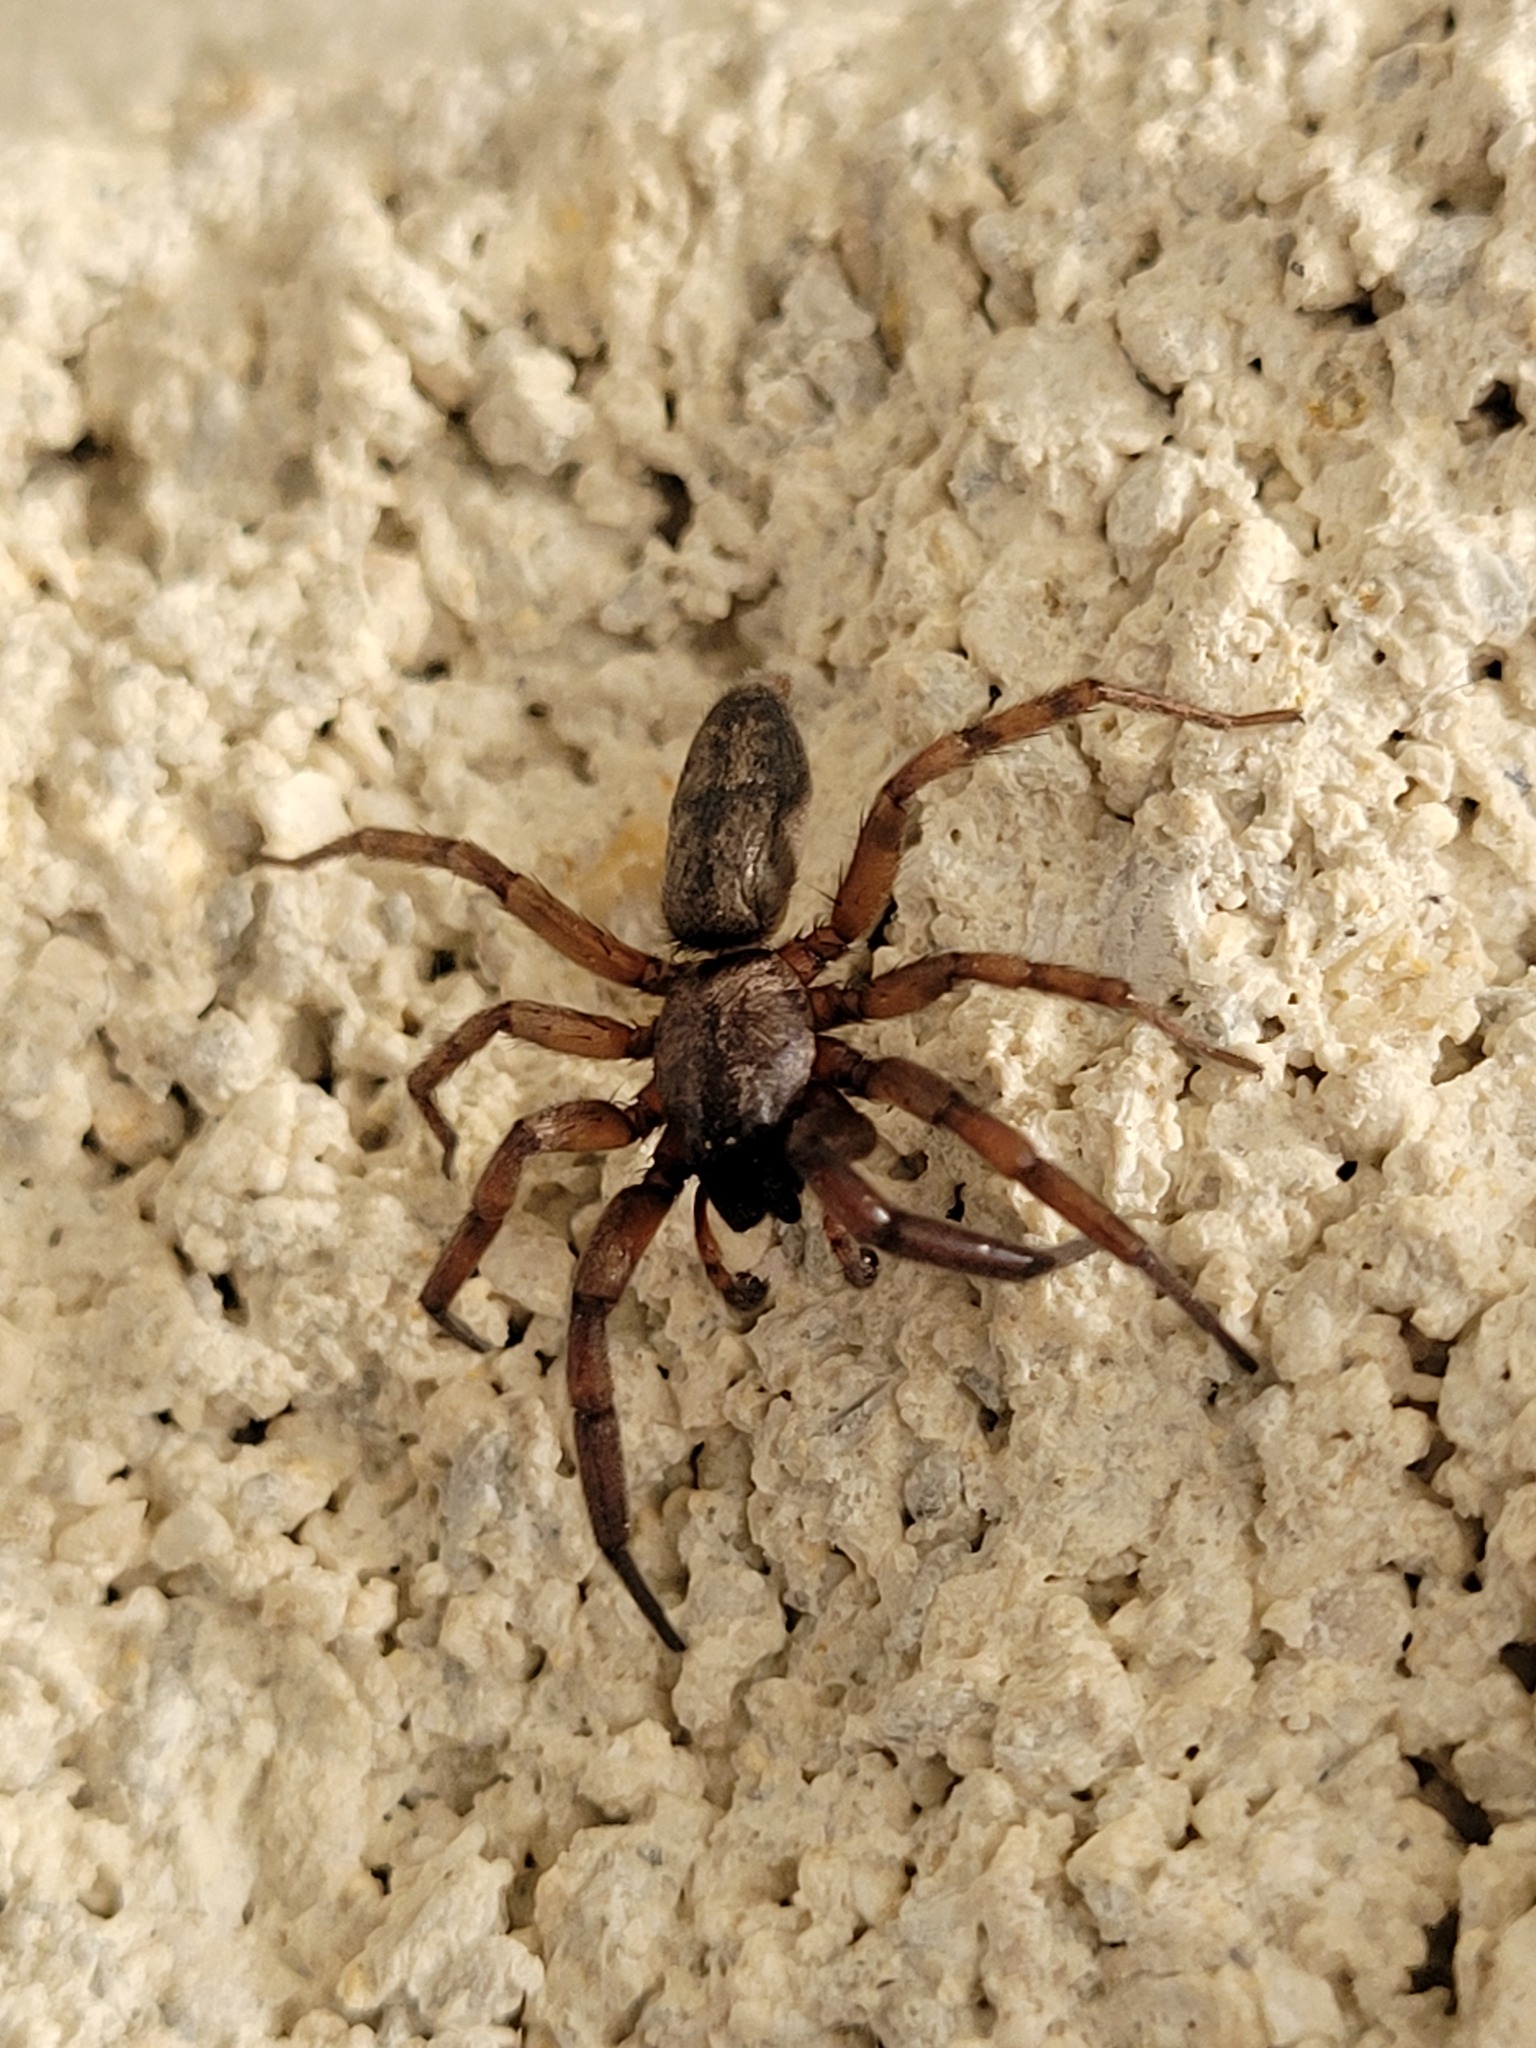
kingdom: Animalia
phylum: Arthropoda
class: Arachnida
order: Araneae
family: Gnaphosidae
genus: Intruda
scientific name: Intruda signata
